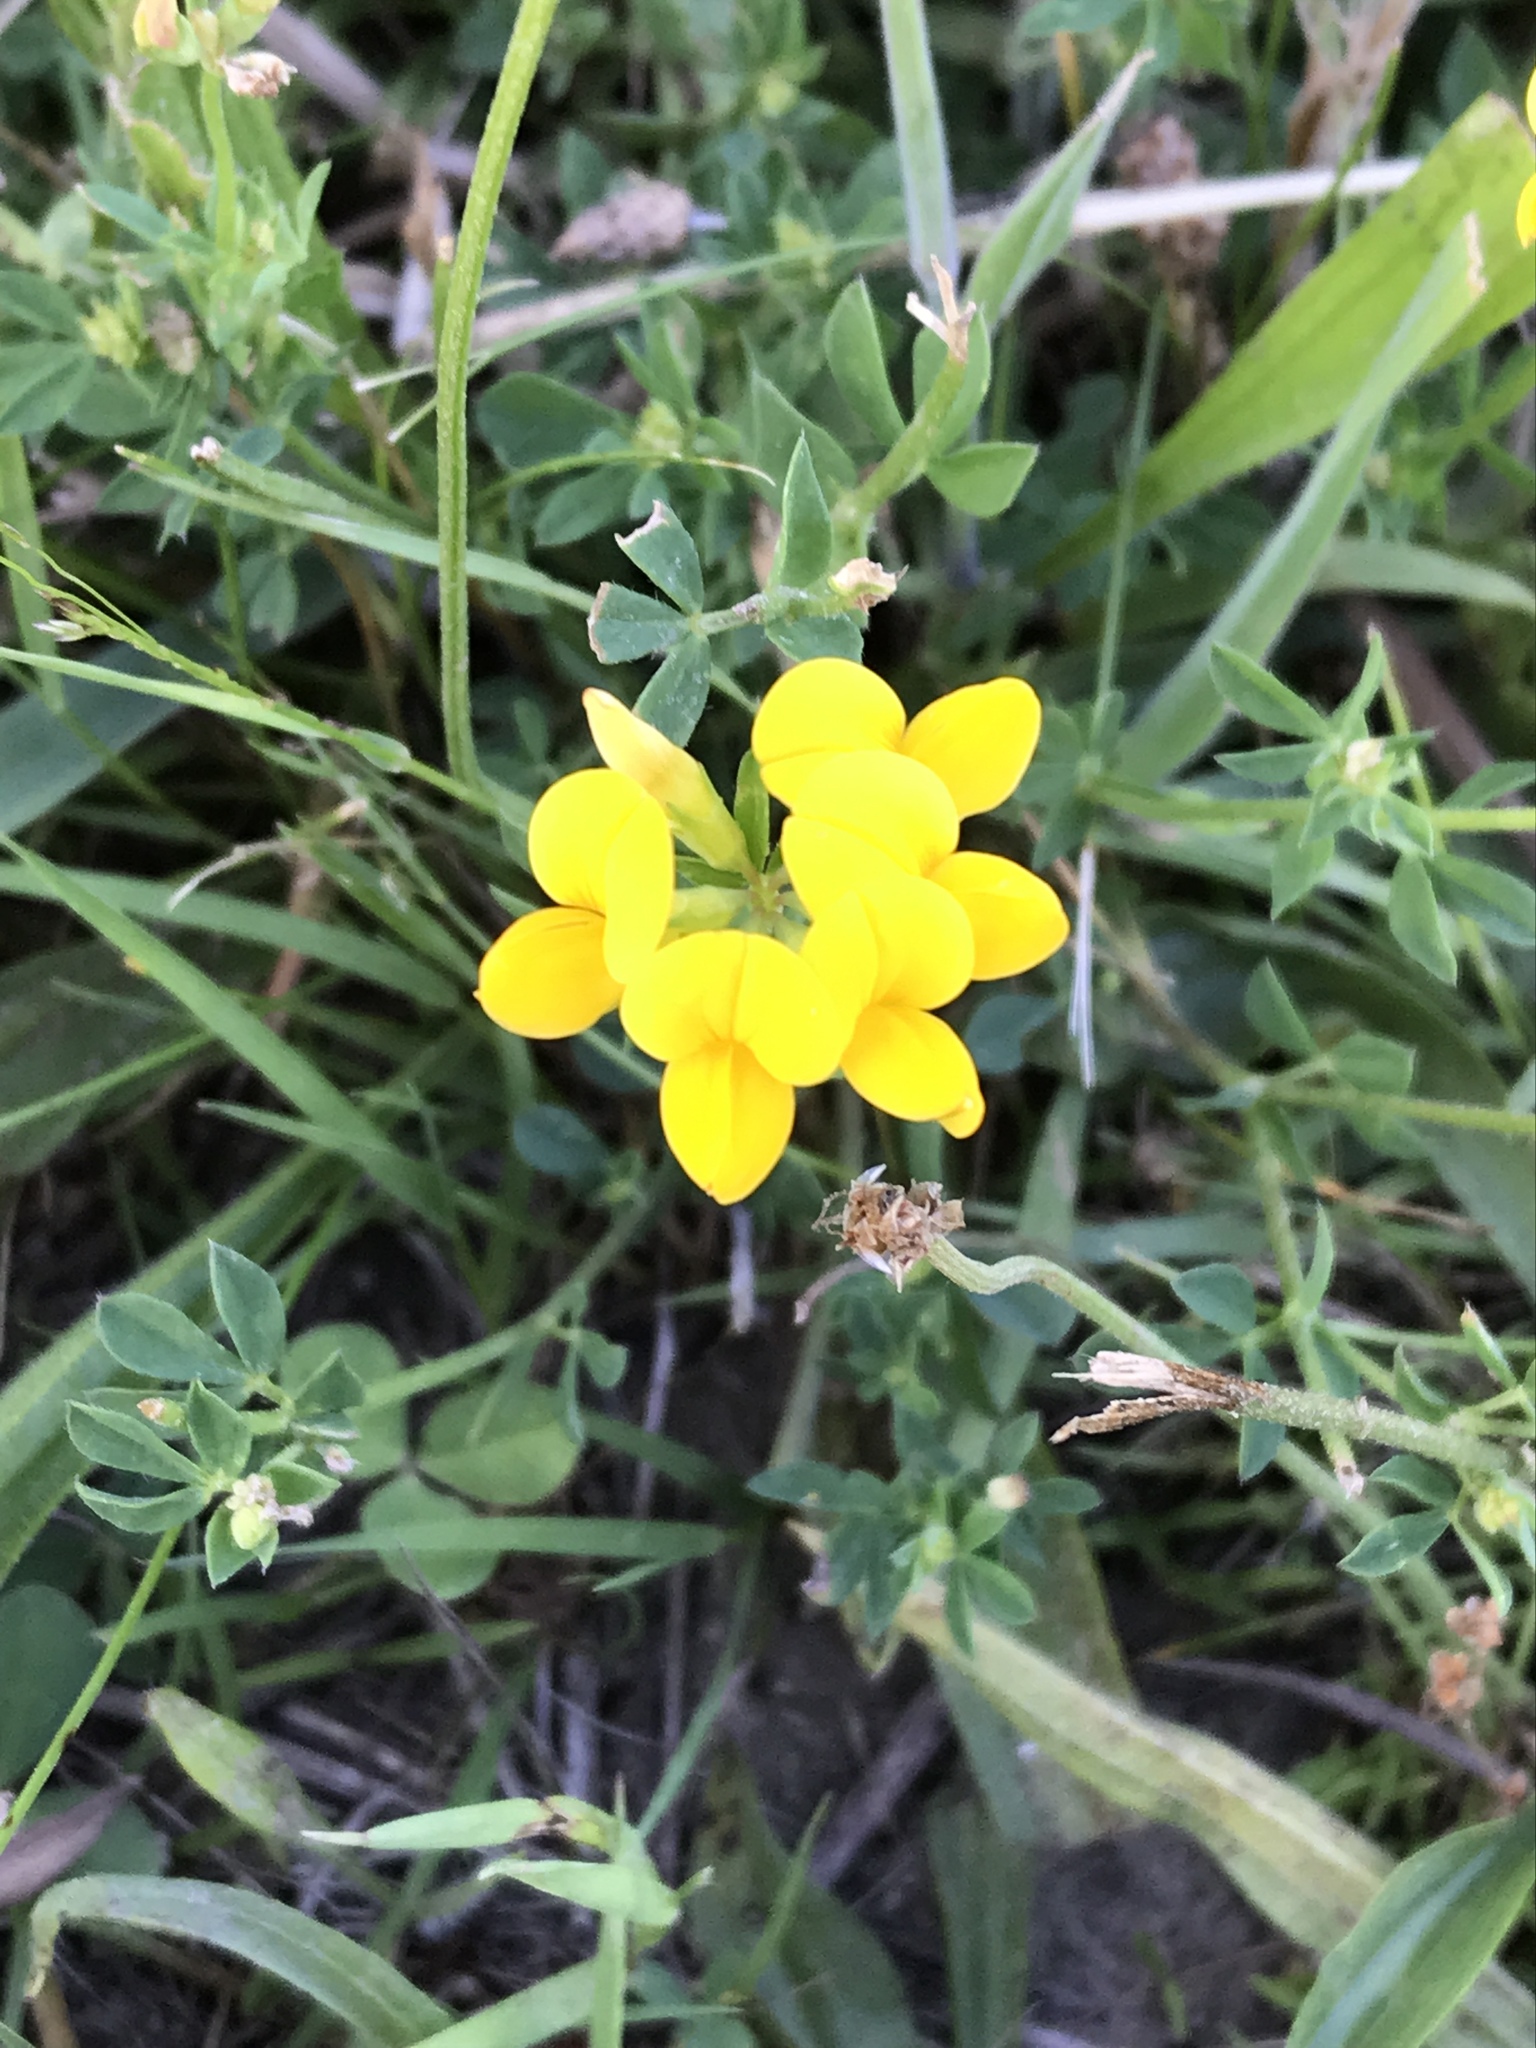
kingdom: Plantae
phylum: Tracheophyta
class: Magnoliopsida
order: Fabales
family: Fabaceae
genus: Lotus
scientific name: Lotus corniculatus
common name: Common bird's-foot-trefoil
